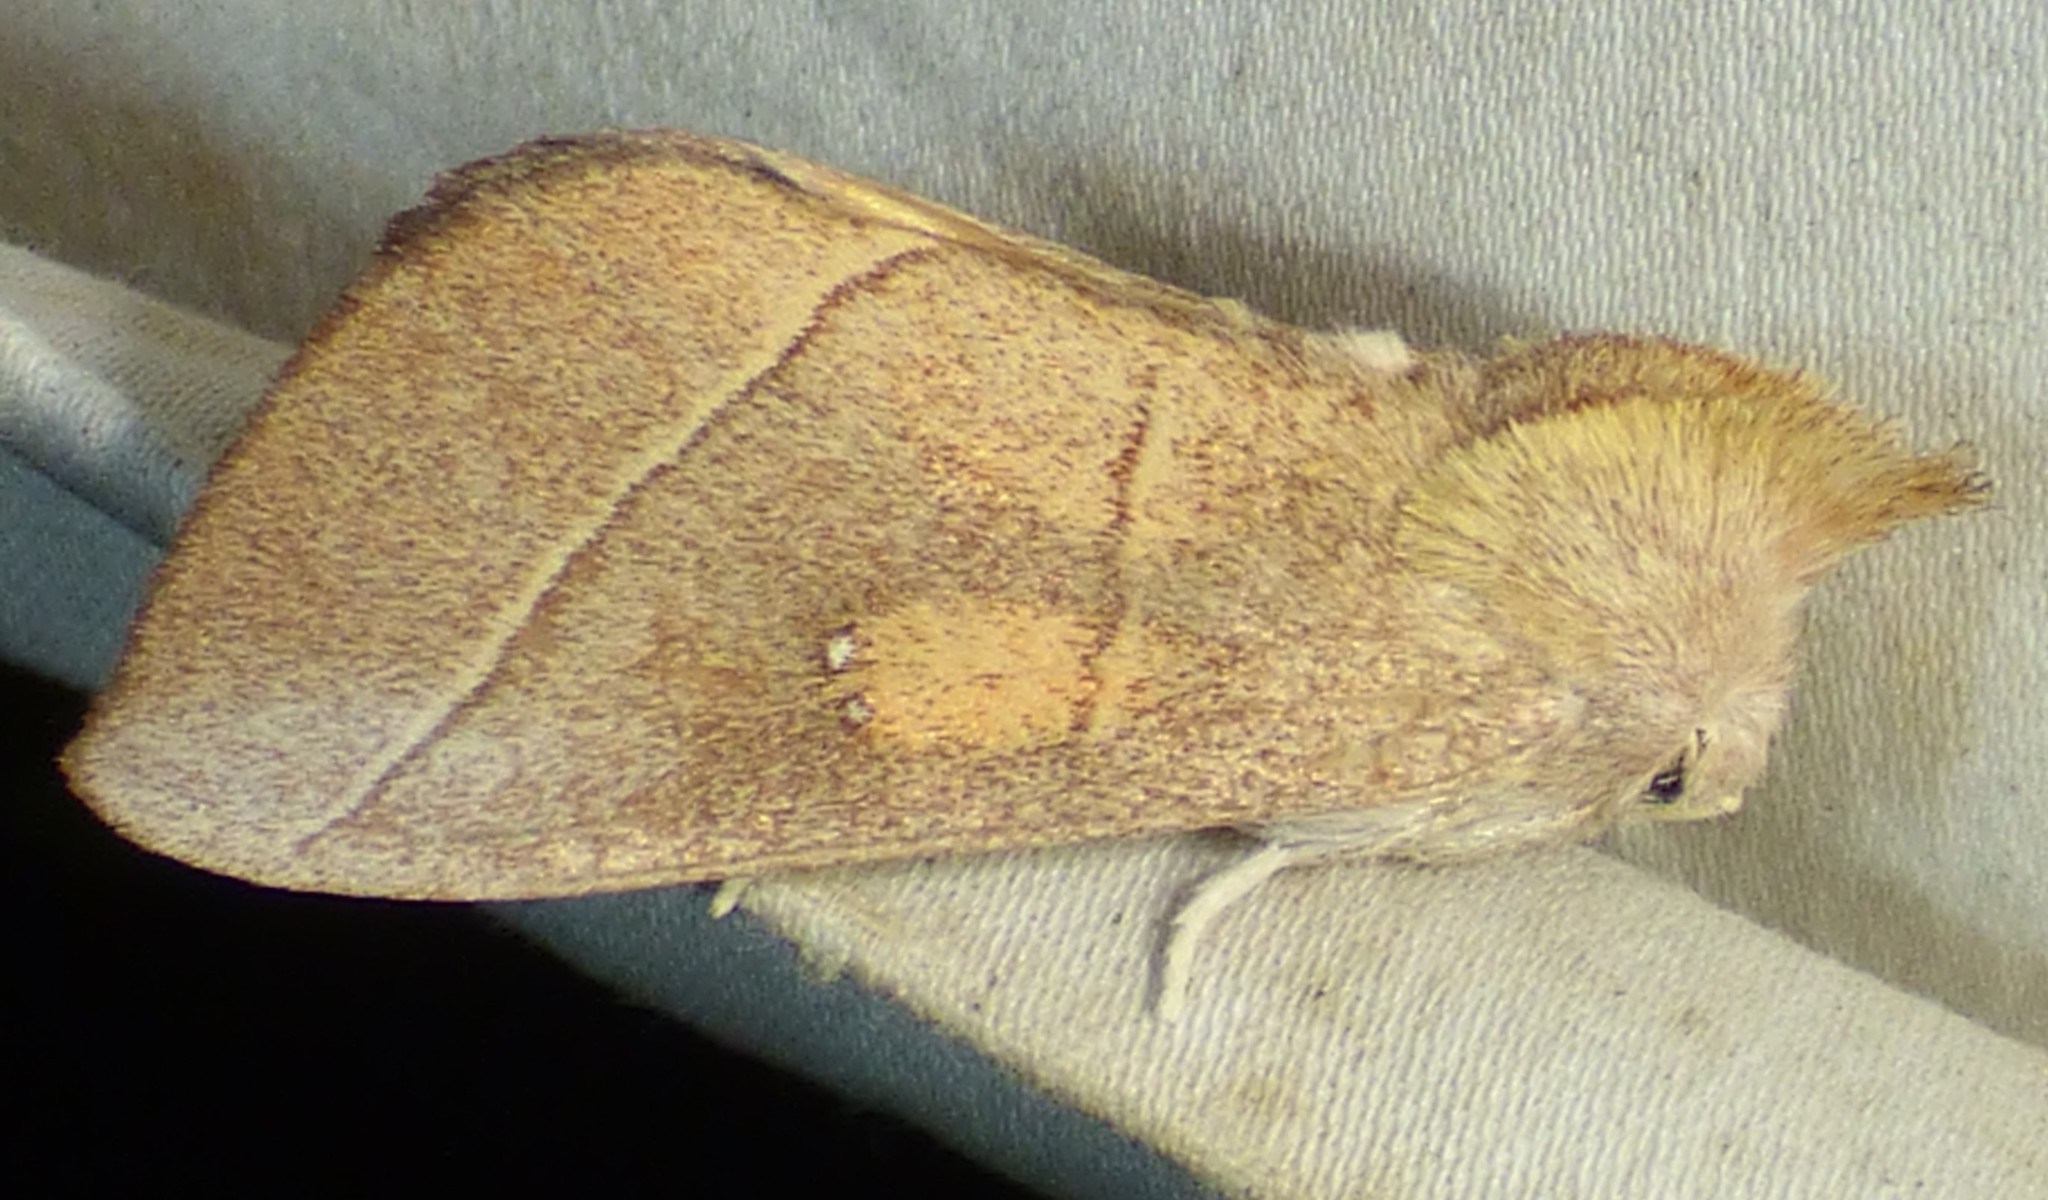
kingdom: Animalia
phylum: Arthropoda
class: Insecta
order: Lepidoptera
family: Notodontidae
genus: Nadata
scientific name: Nadata gibbosa
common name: White-dotted prominent
